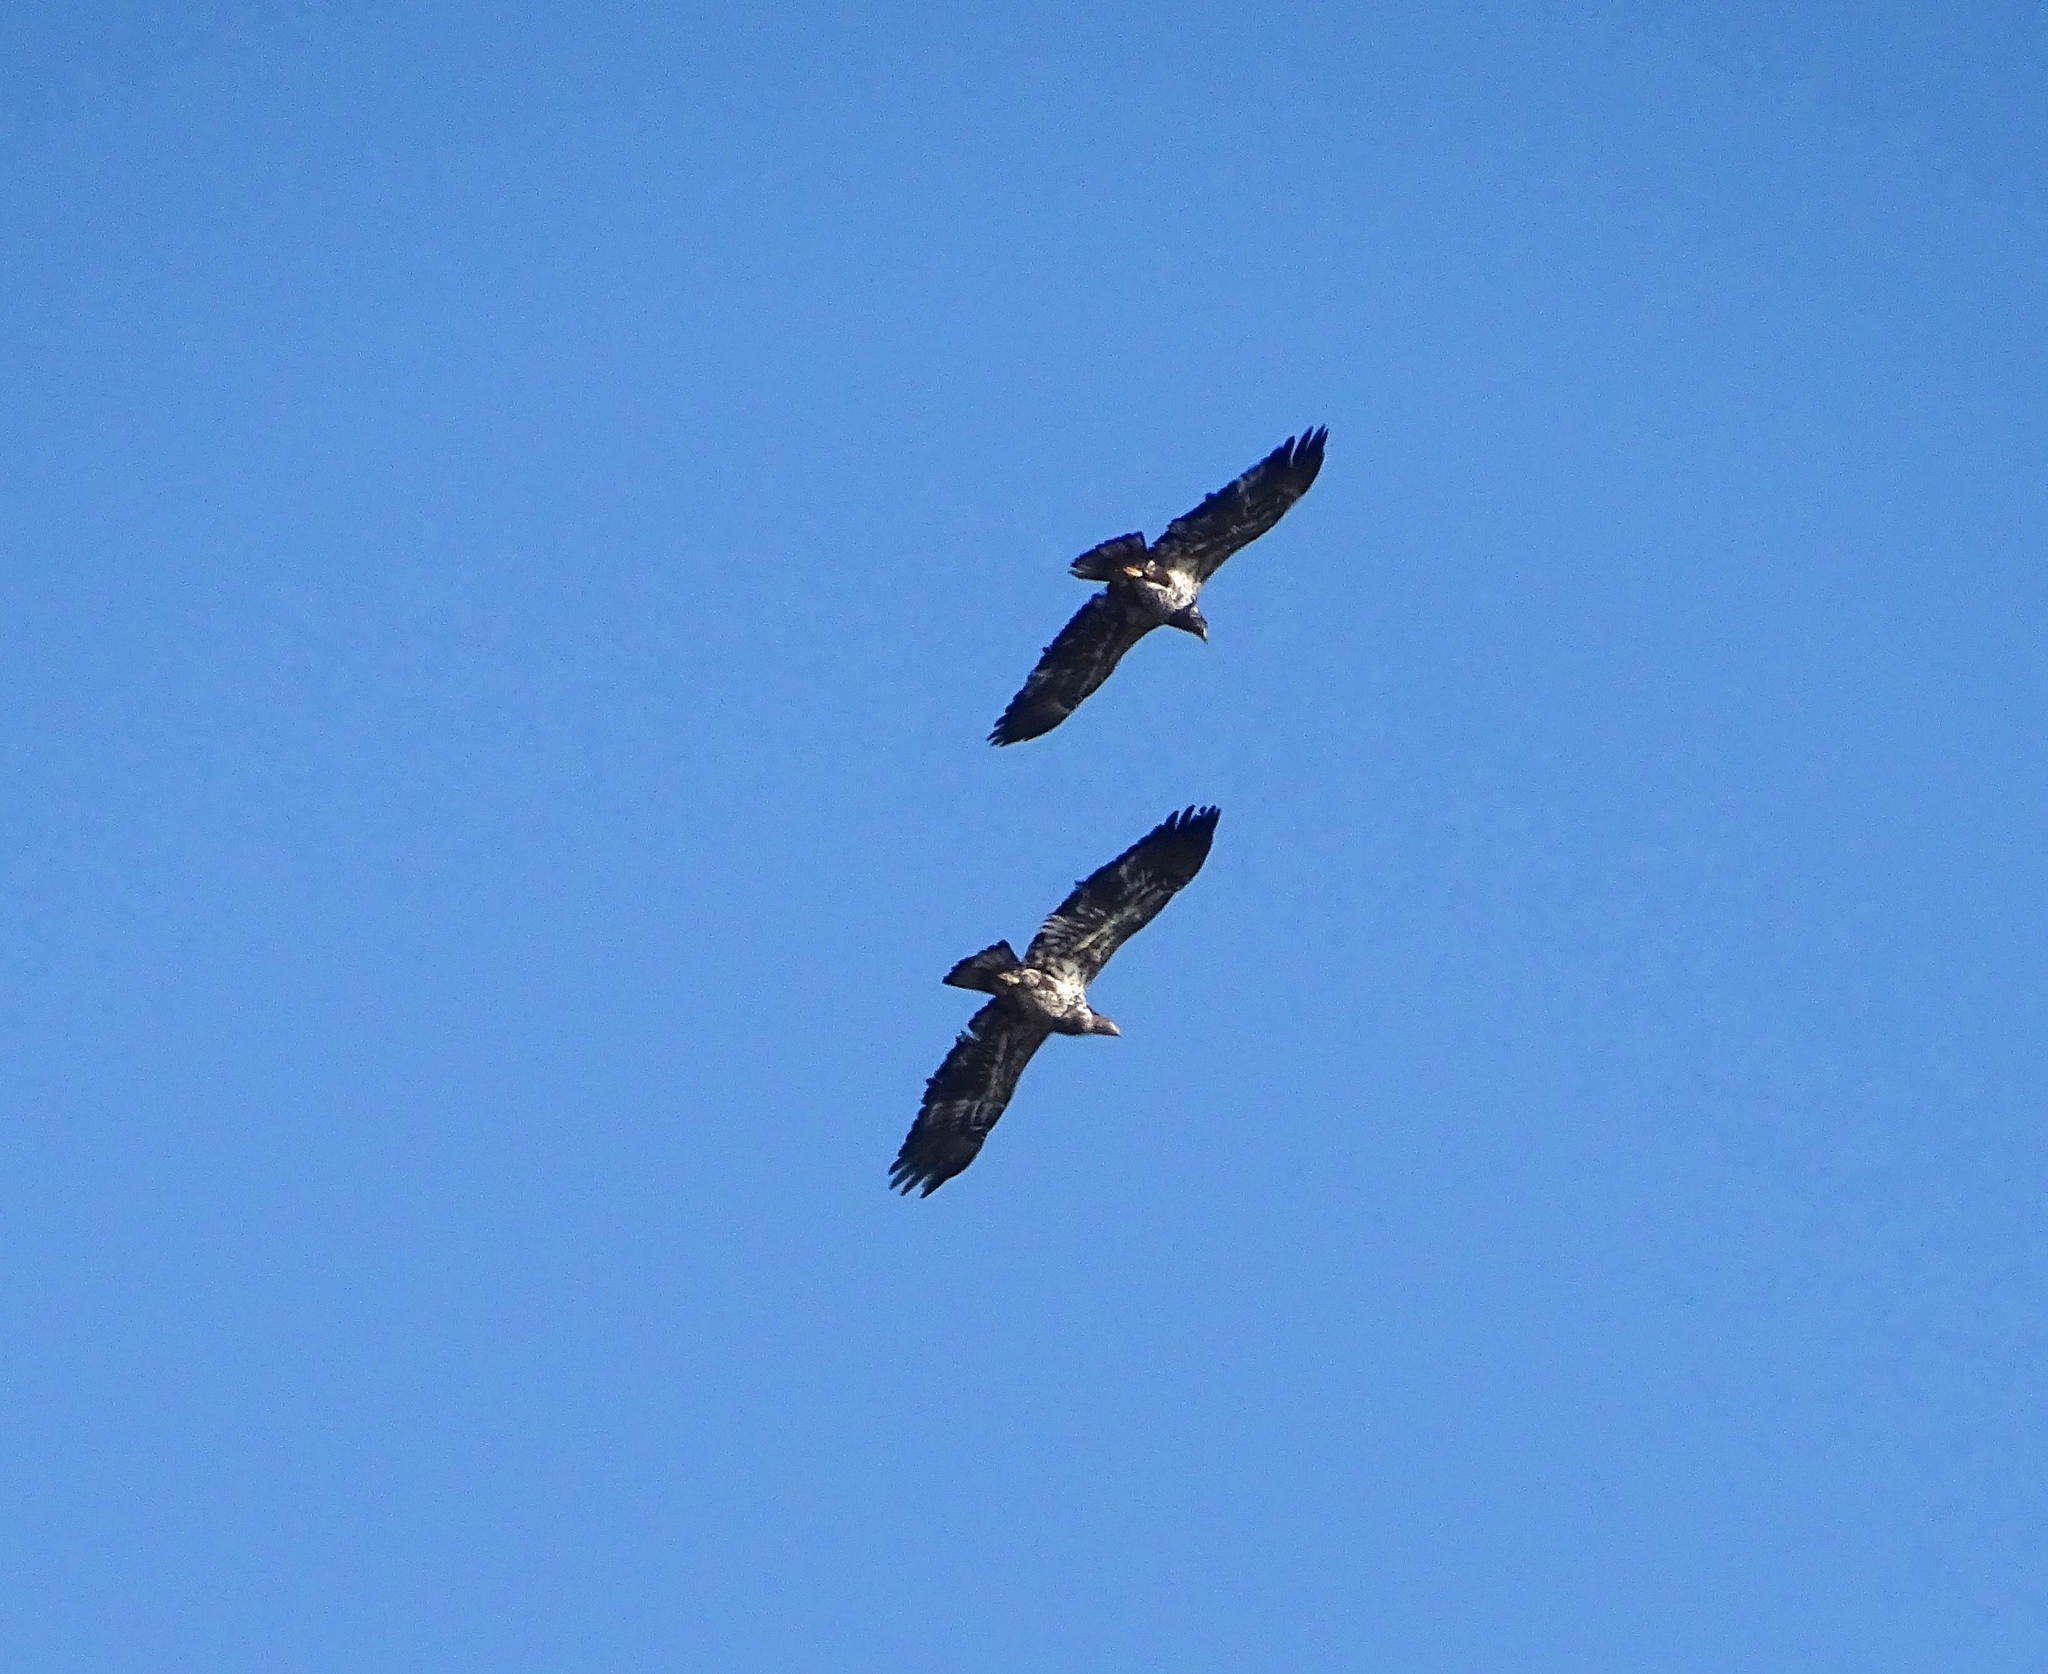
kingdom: Animalia
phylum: Chordata
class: Aves
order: Accipitriformes
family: Accipitridae
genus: Haliaeetus
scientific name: Haliaeetus leucocephalus
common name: Bald eagle
